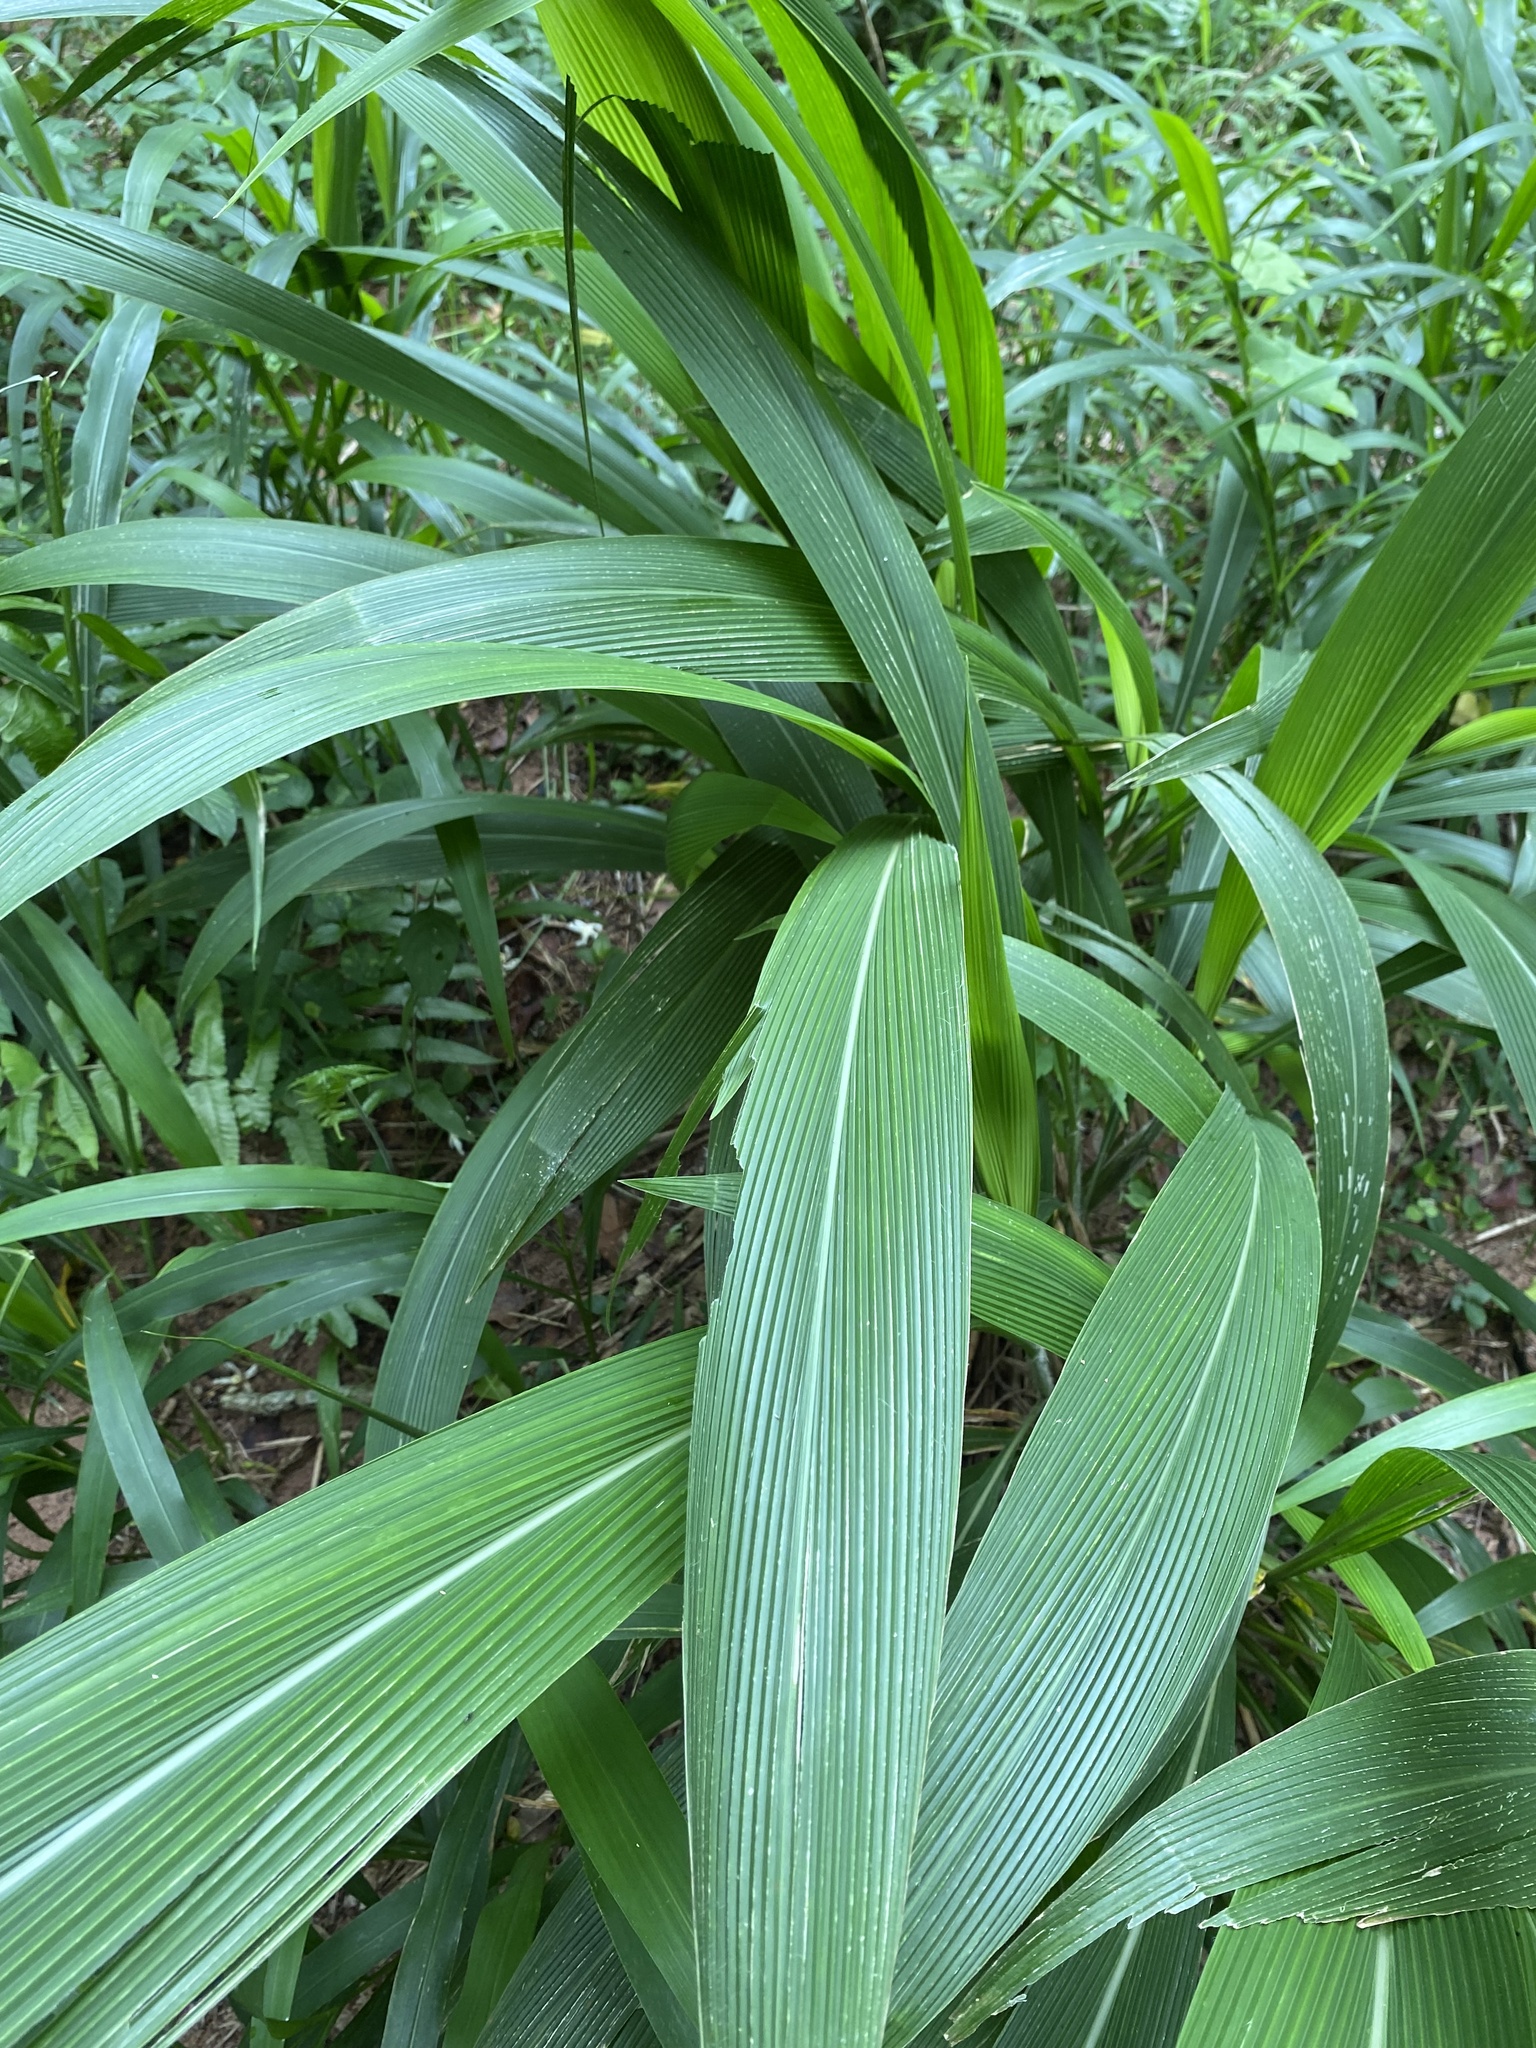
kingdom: Plantae
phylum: Tracheophyta
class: Liliopsida
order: Poales
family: Poaceae
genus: Setaria
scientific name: Setaria megaphylla
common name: Bigleaf bristlegrass
